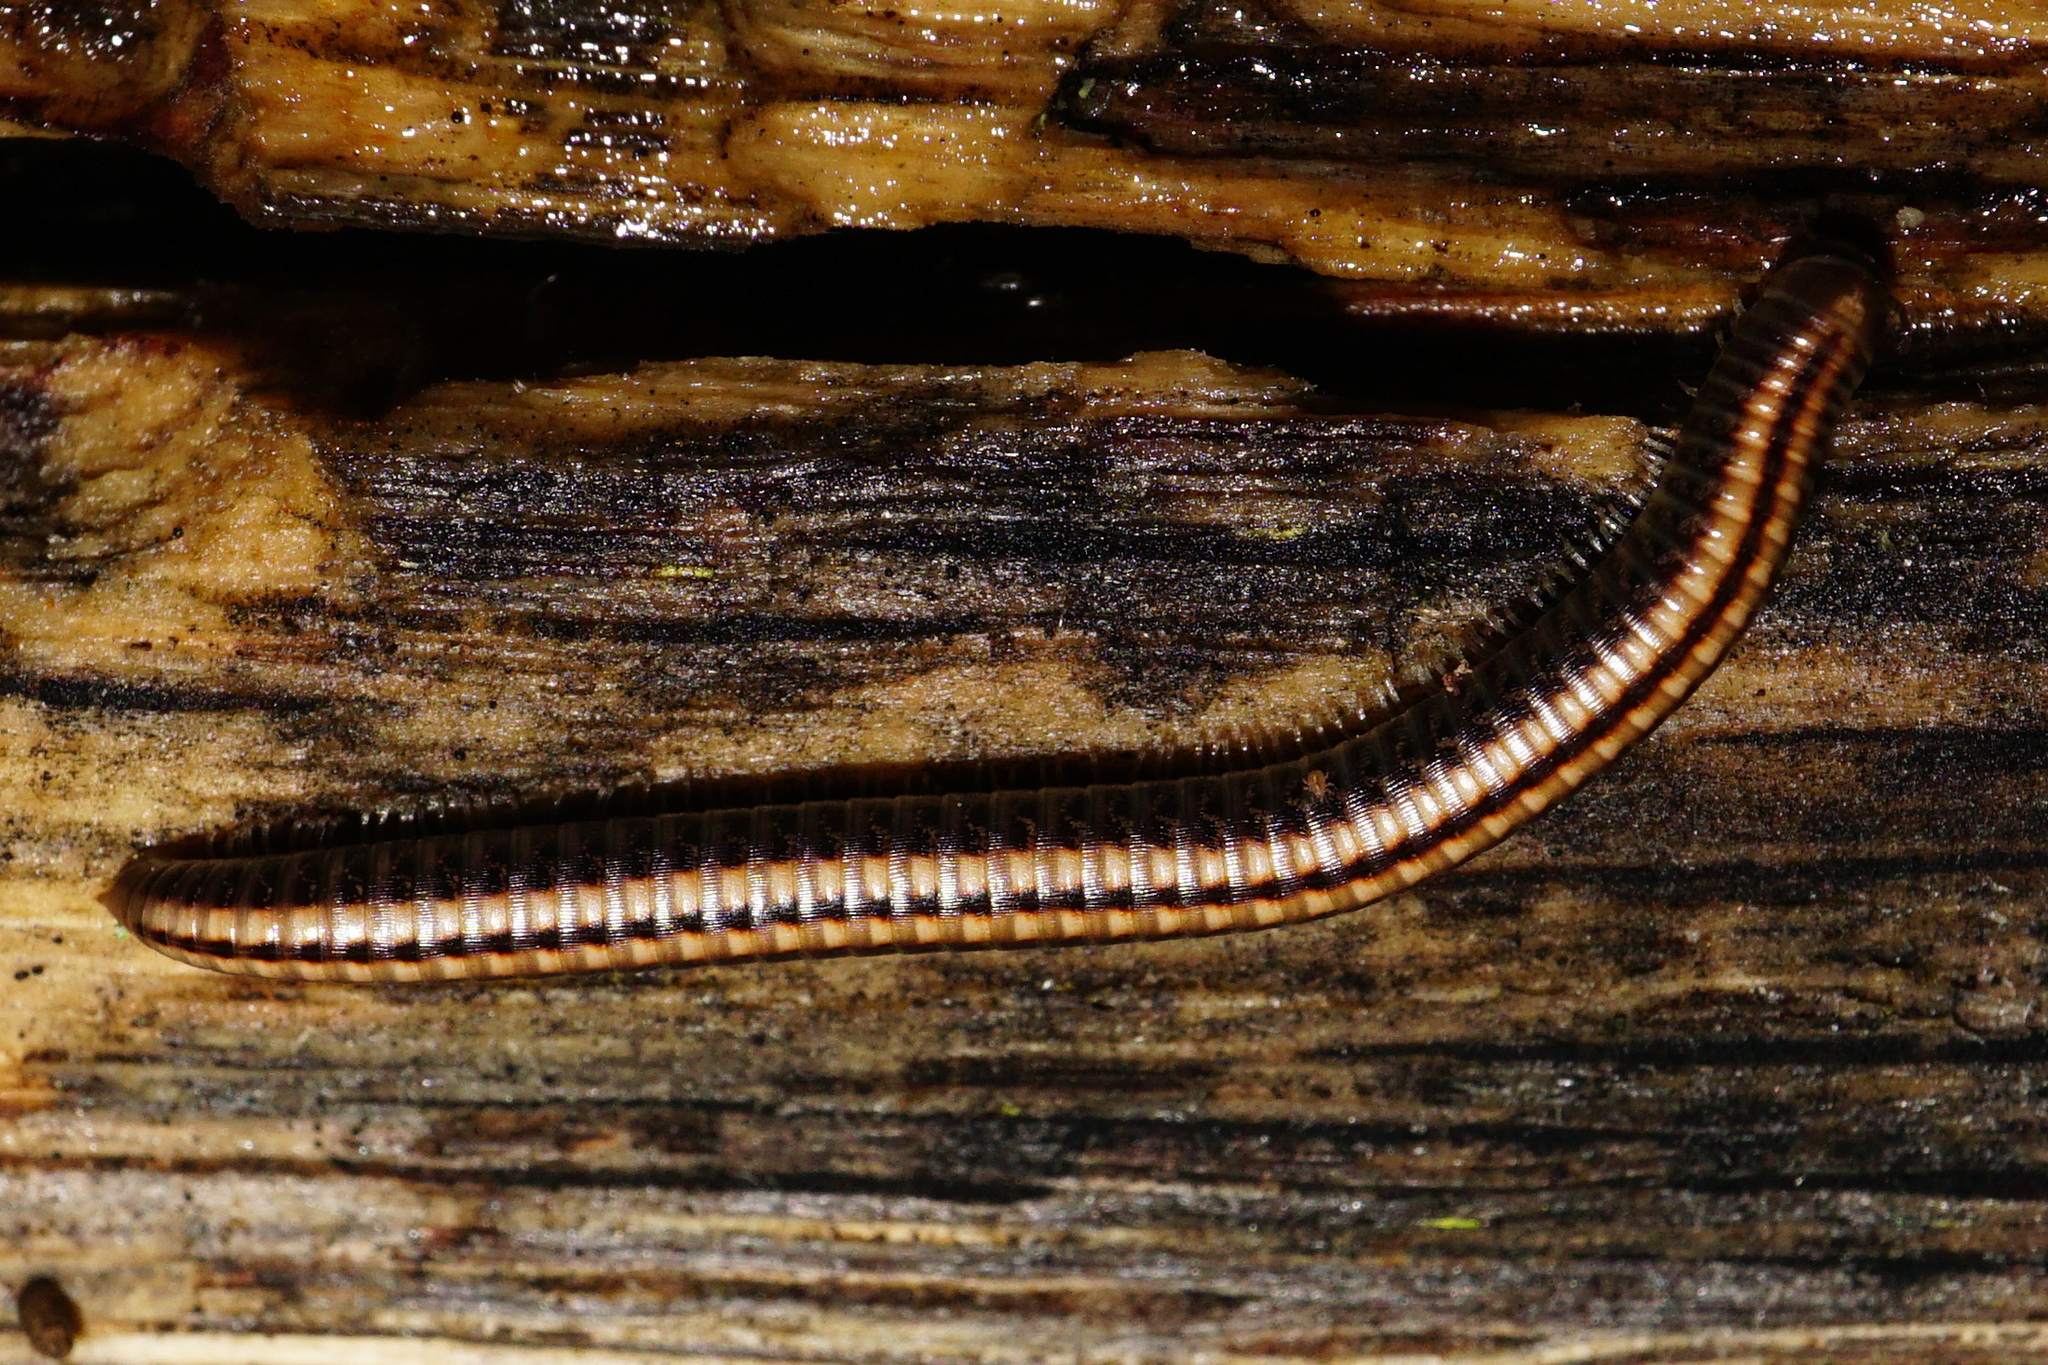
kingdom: Animalia
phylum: Arthropoda
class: Diplopoda
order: Julida
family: Julidae
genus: Ommatoiulus
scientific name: Ommatoiulus sabulosus
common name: Striped millipede
